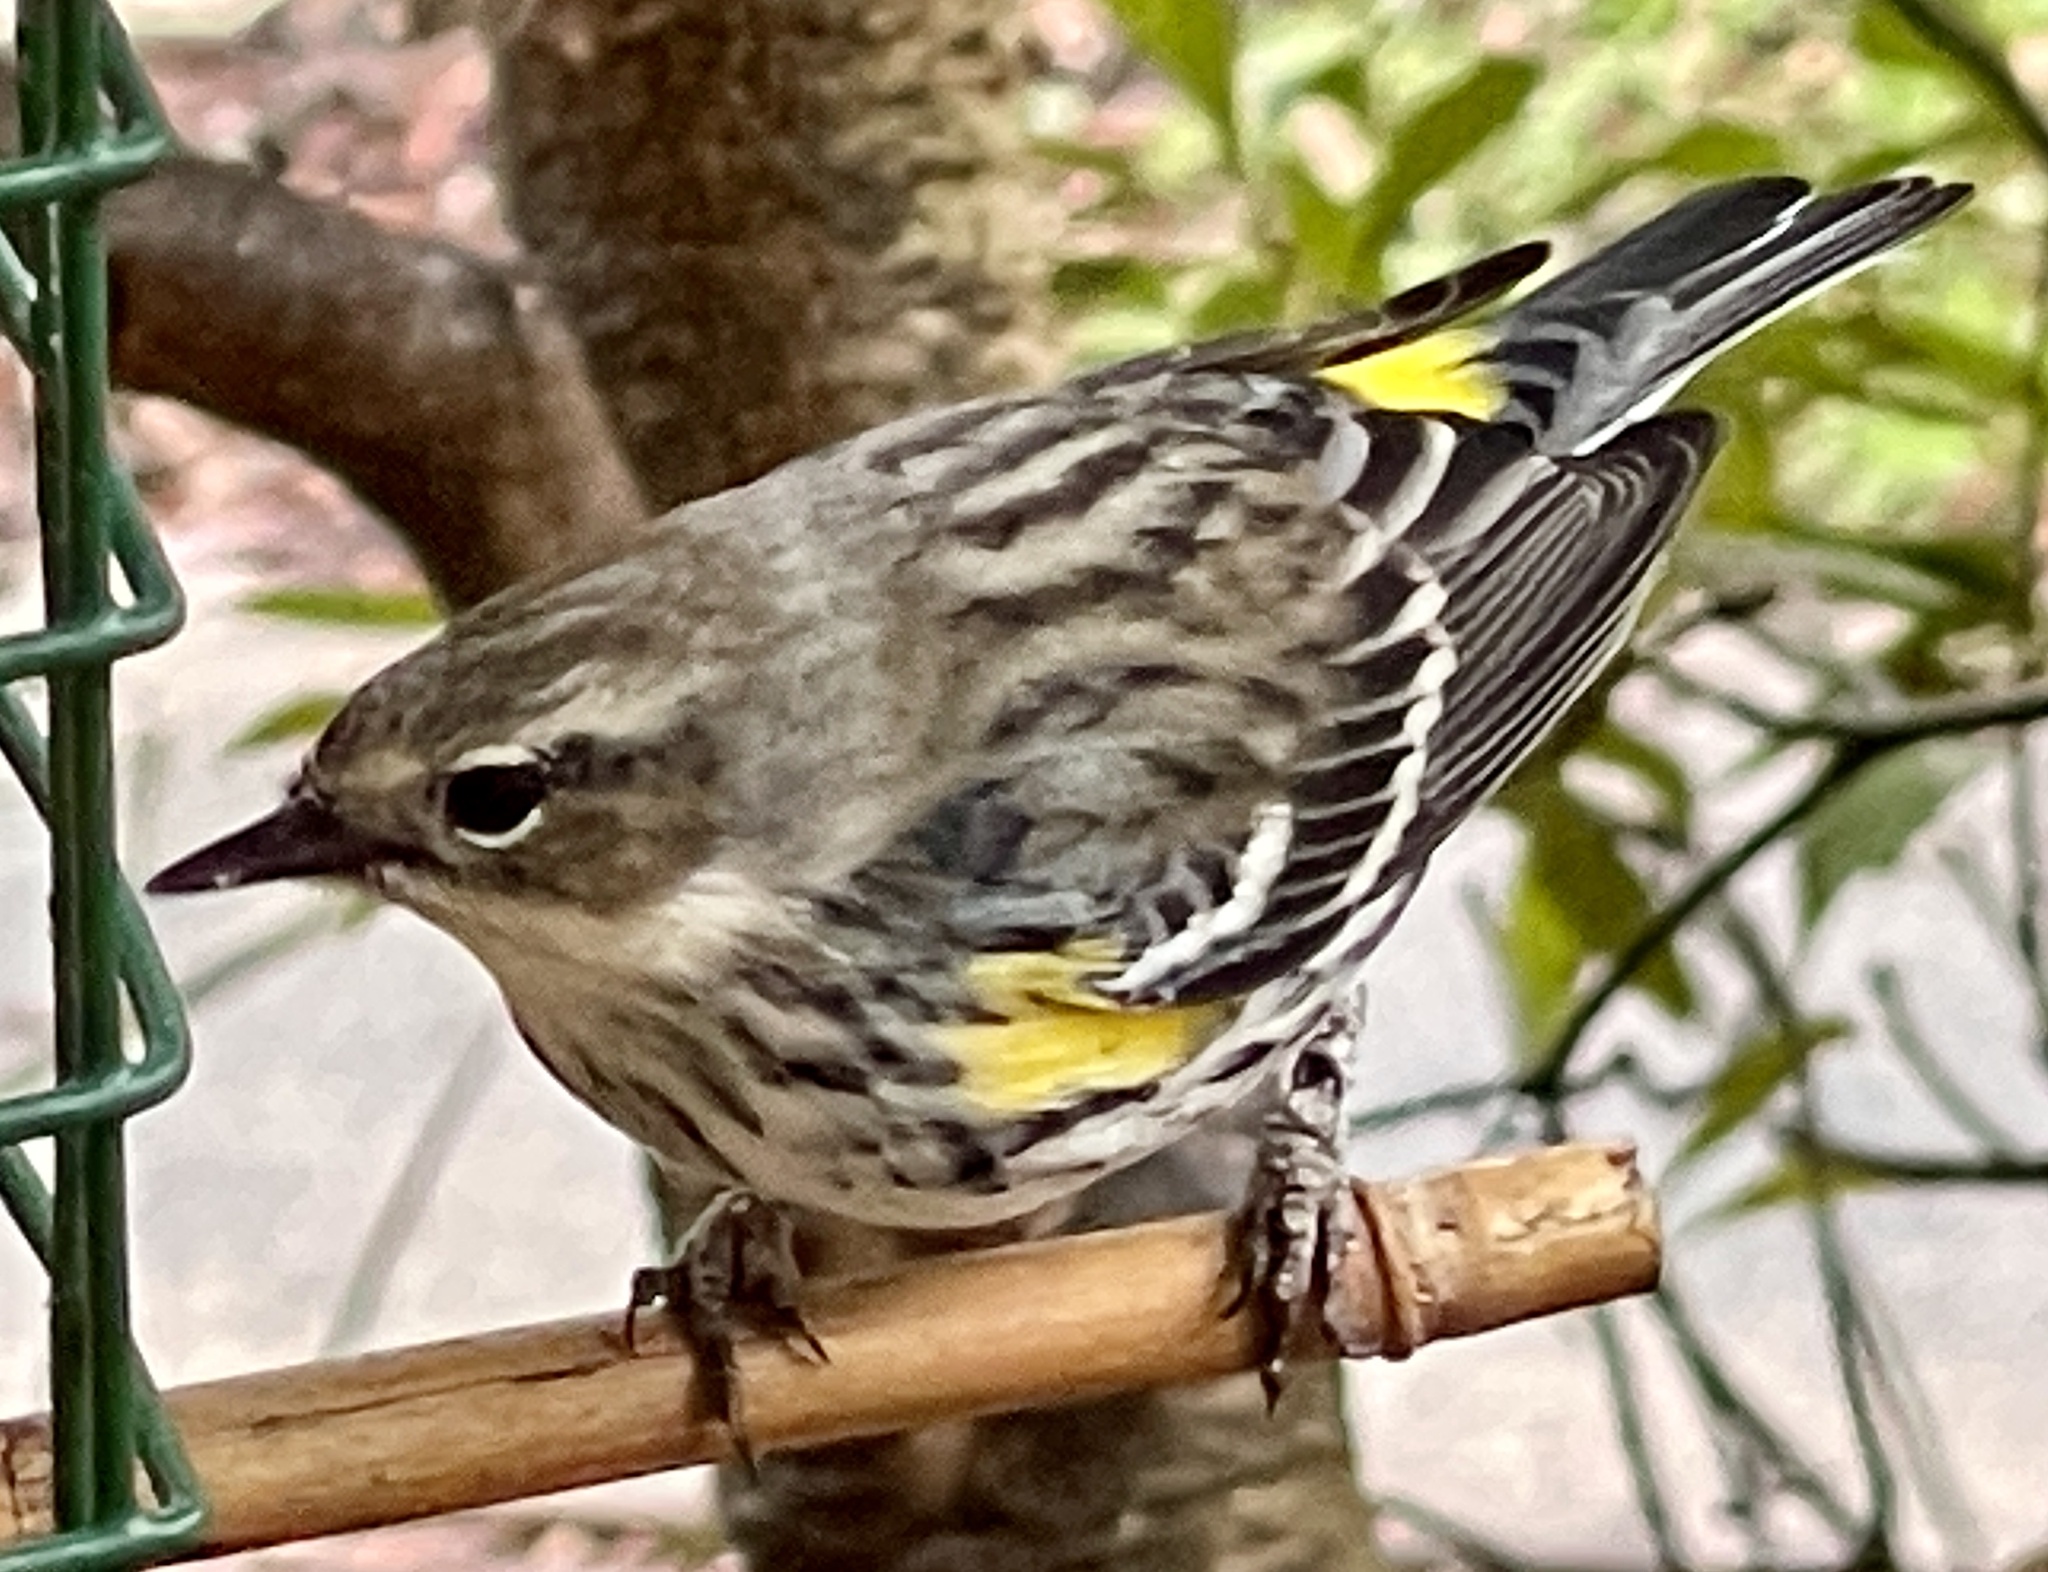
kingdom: Animalia
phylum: Chordata
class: Aves
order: Passeriformes
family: Parulidae
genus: Setophaga
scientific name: Setophaga coronata
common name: Myrtle warbler
